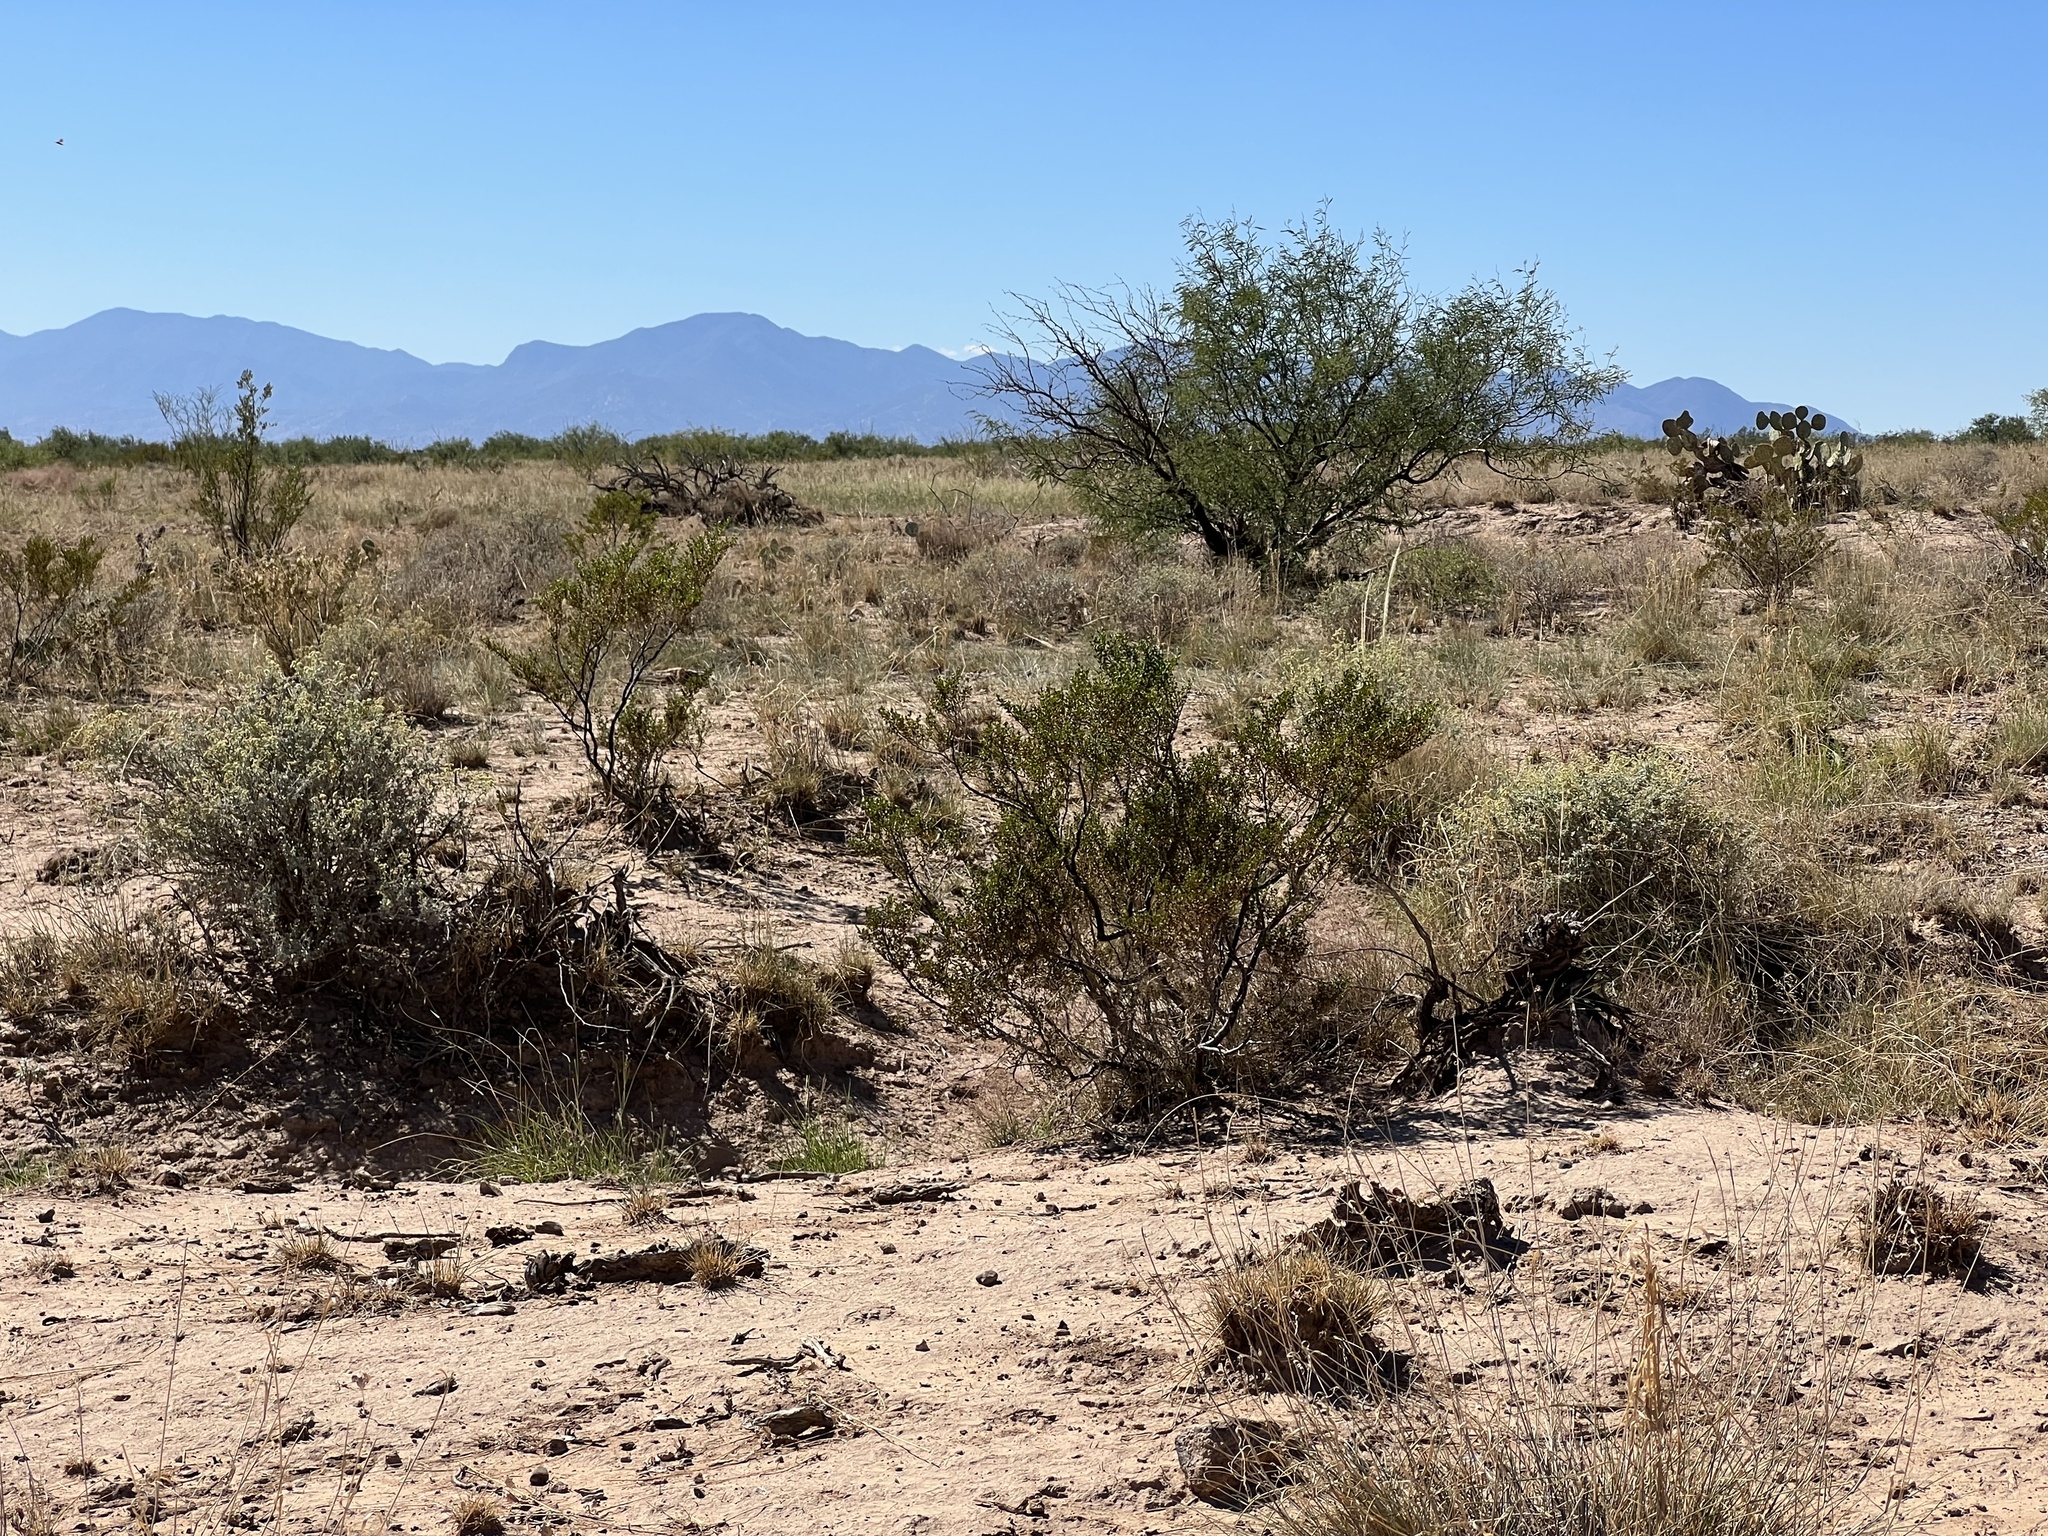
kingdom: Plantae
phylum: Tracheophyta
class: Magnoliopsida
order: Zygophyllales
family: Zygophyllaceae
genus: Larrea
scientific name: Larrea tridentata
